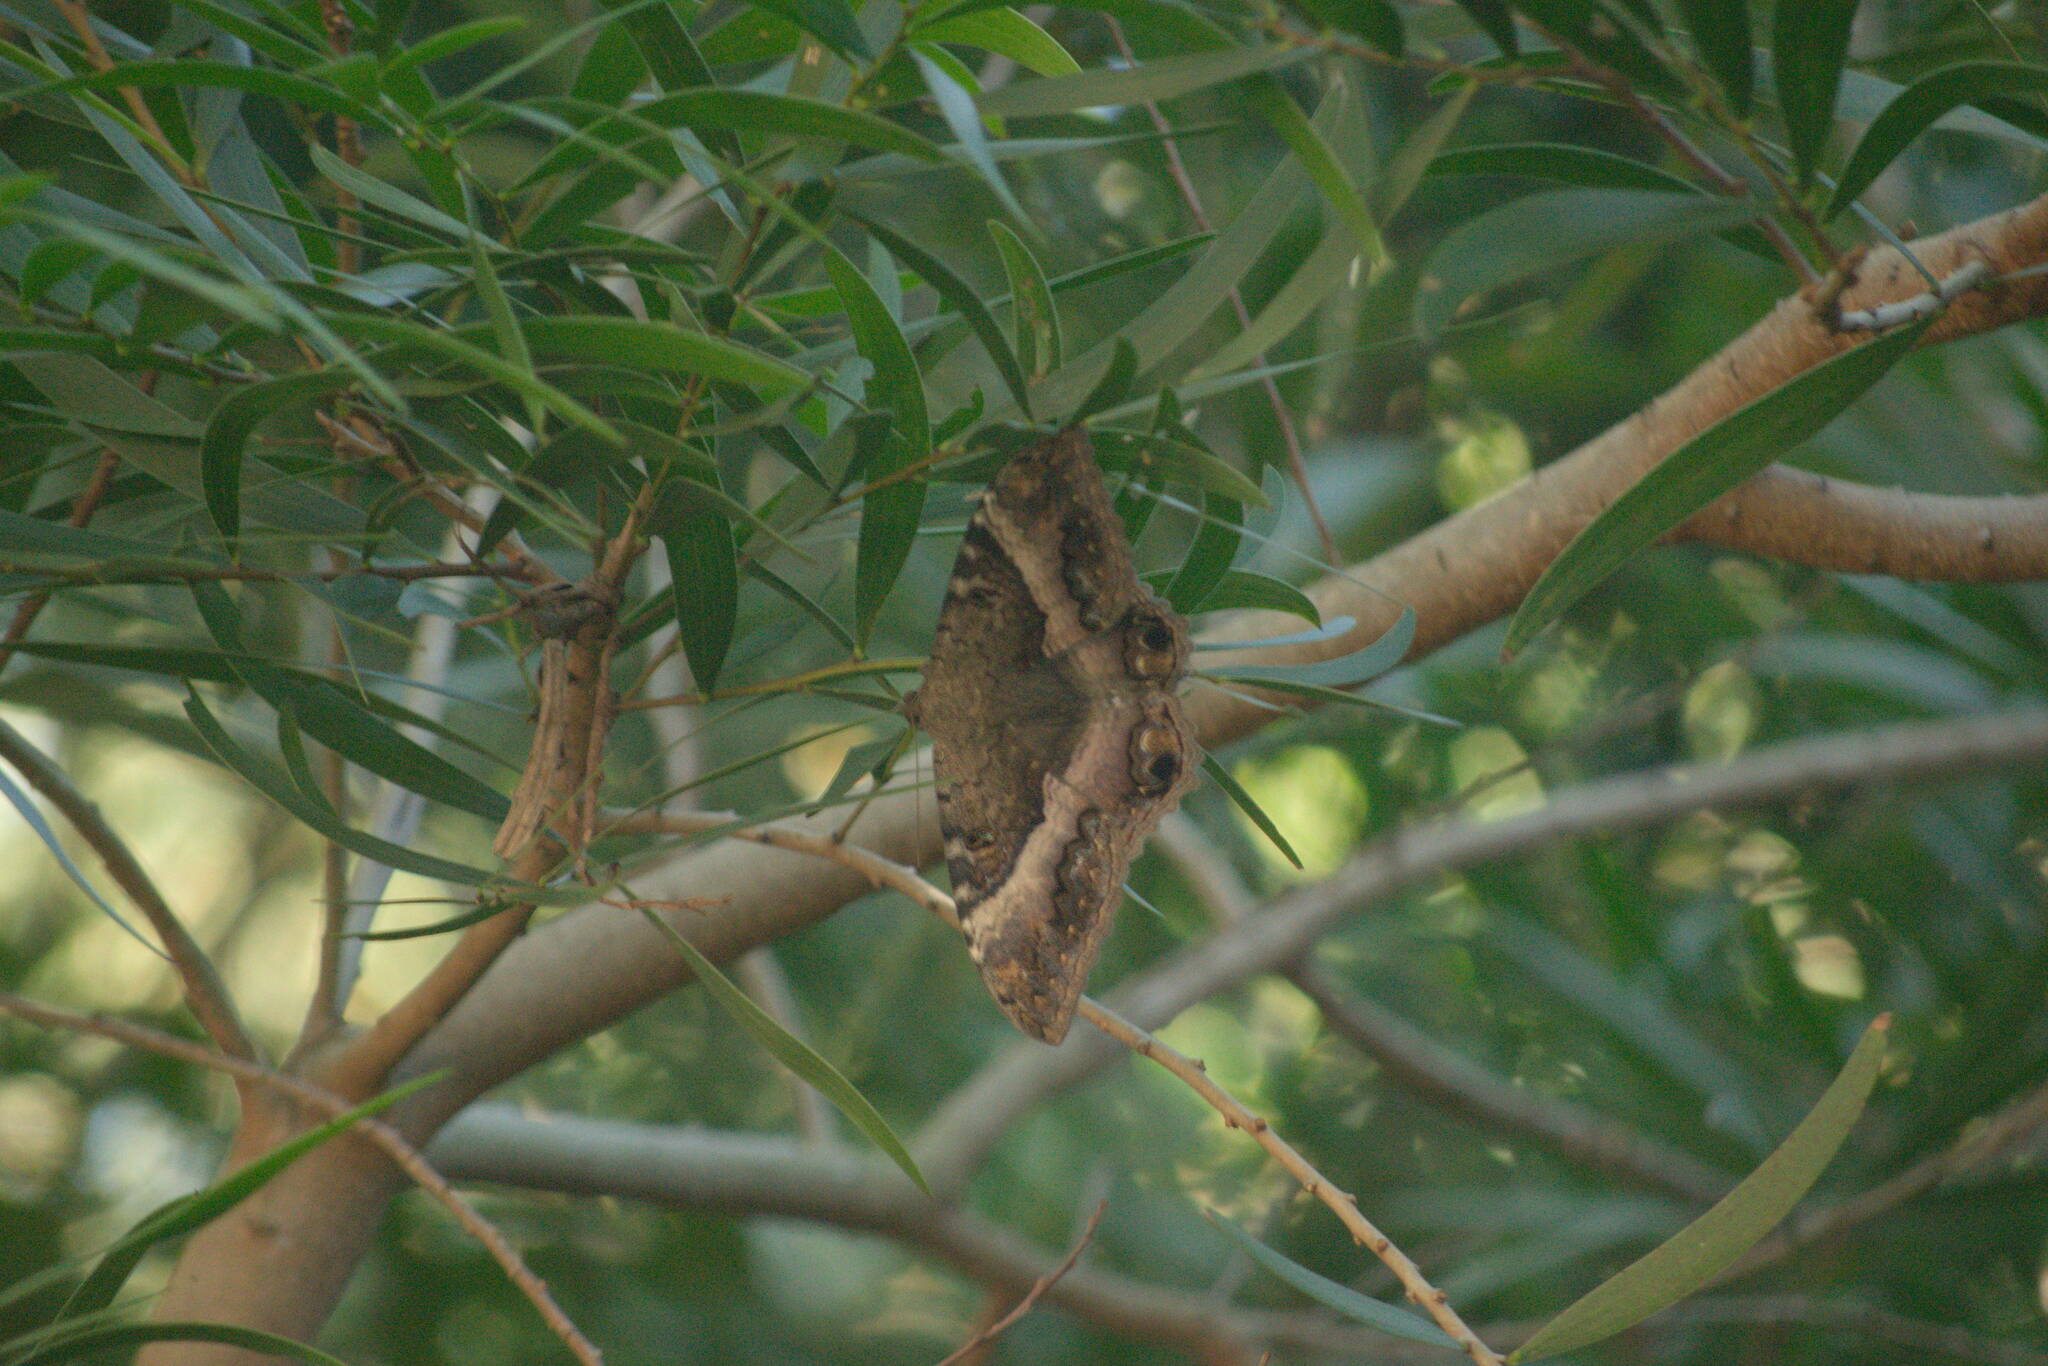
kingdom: Animalia
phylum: Arthropoda
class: Insecta
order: Lepidoptera
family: Erebidae
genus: Ascalapha
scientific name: Ascalapha odorata
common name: Black witch
